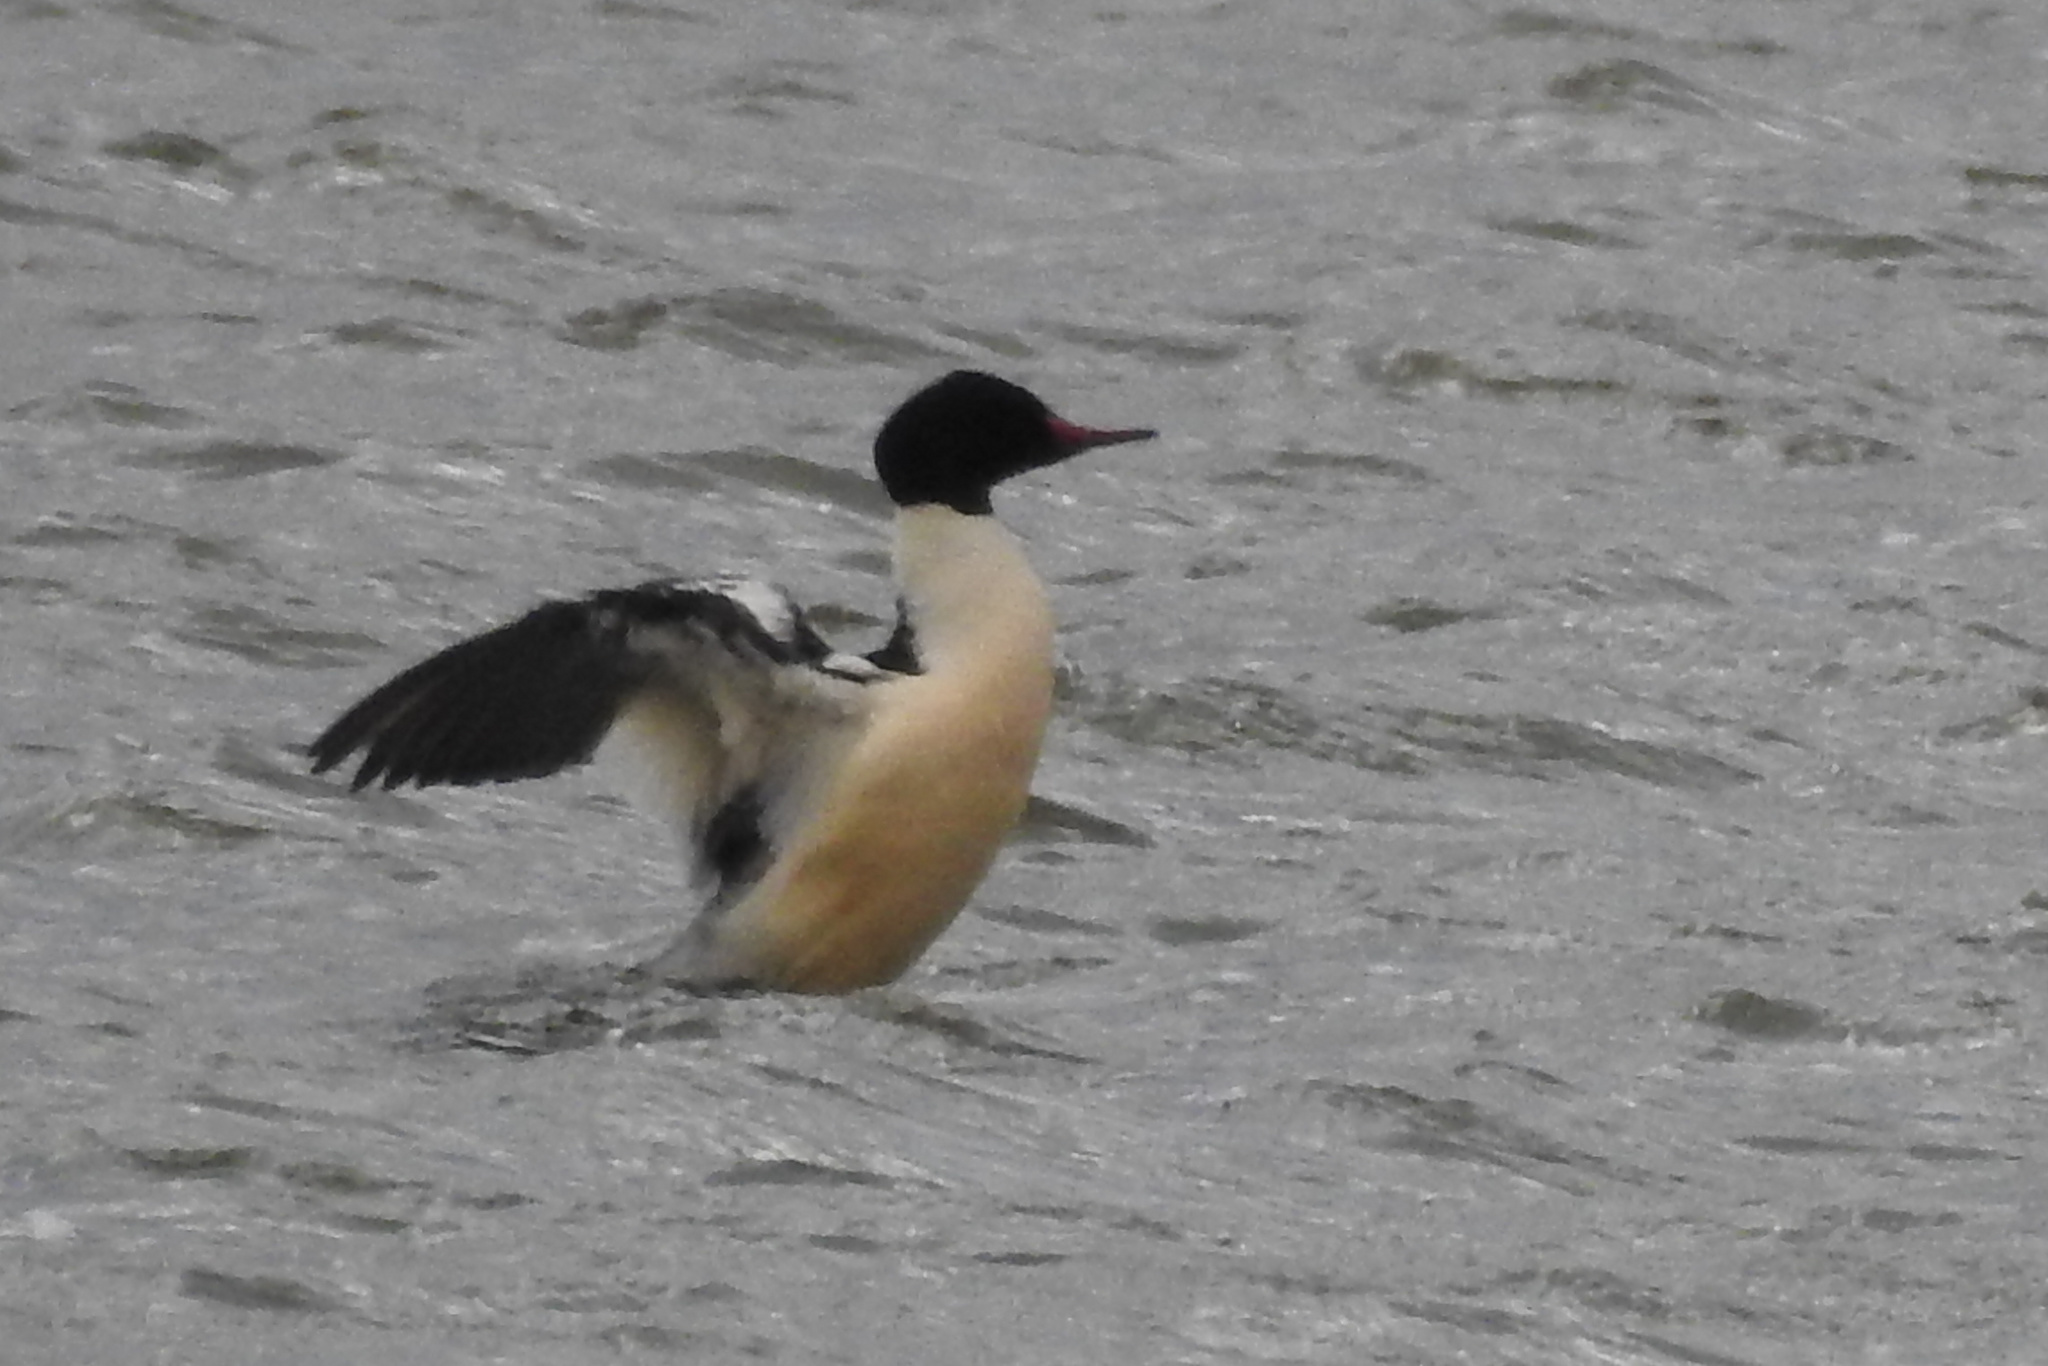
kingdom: Animalia
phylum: Chordata
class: Aves
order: Anseriformes
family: Anatidae
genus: Mergus
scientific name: Mergus merganser
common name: Common merganser
